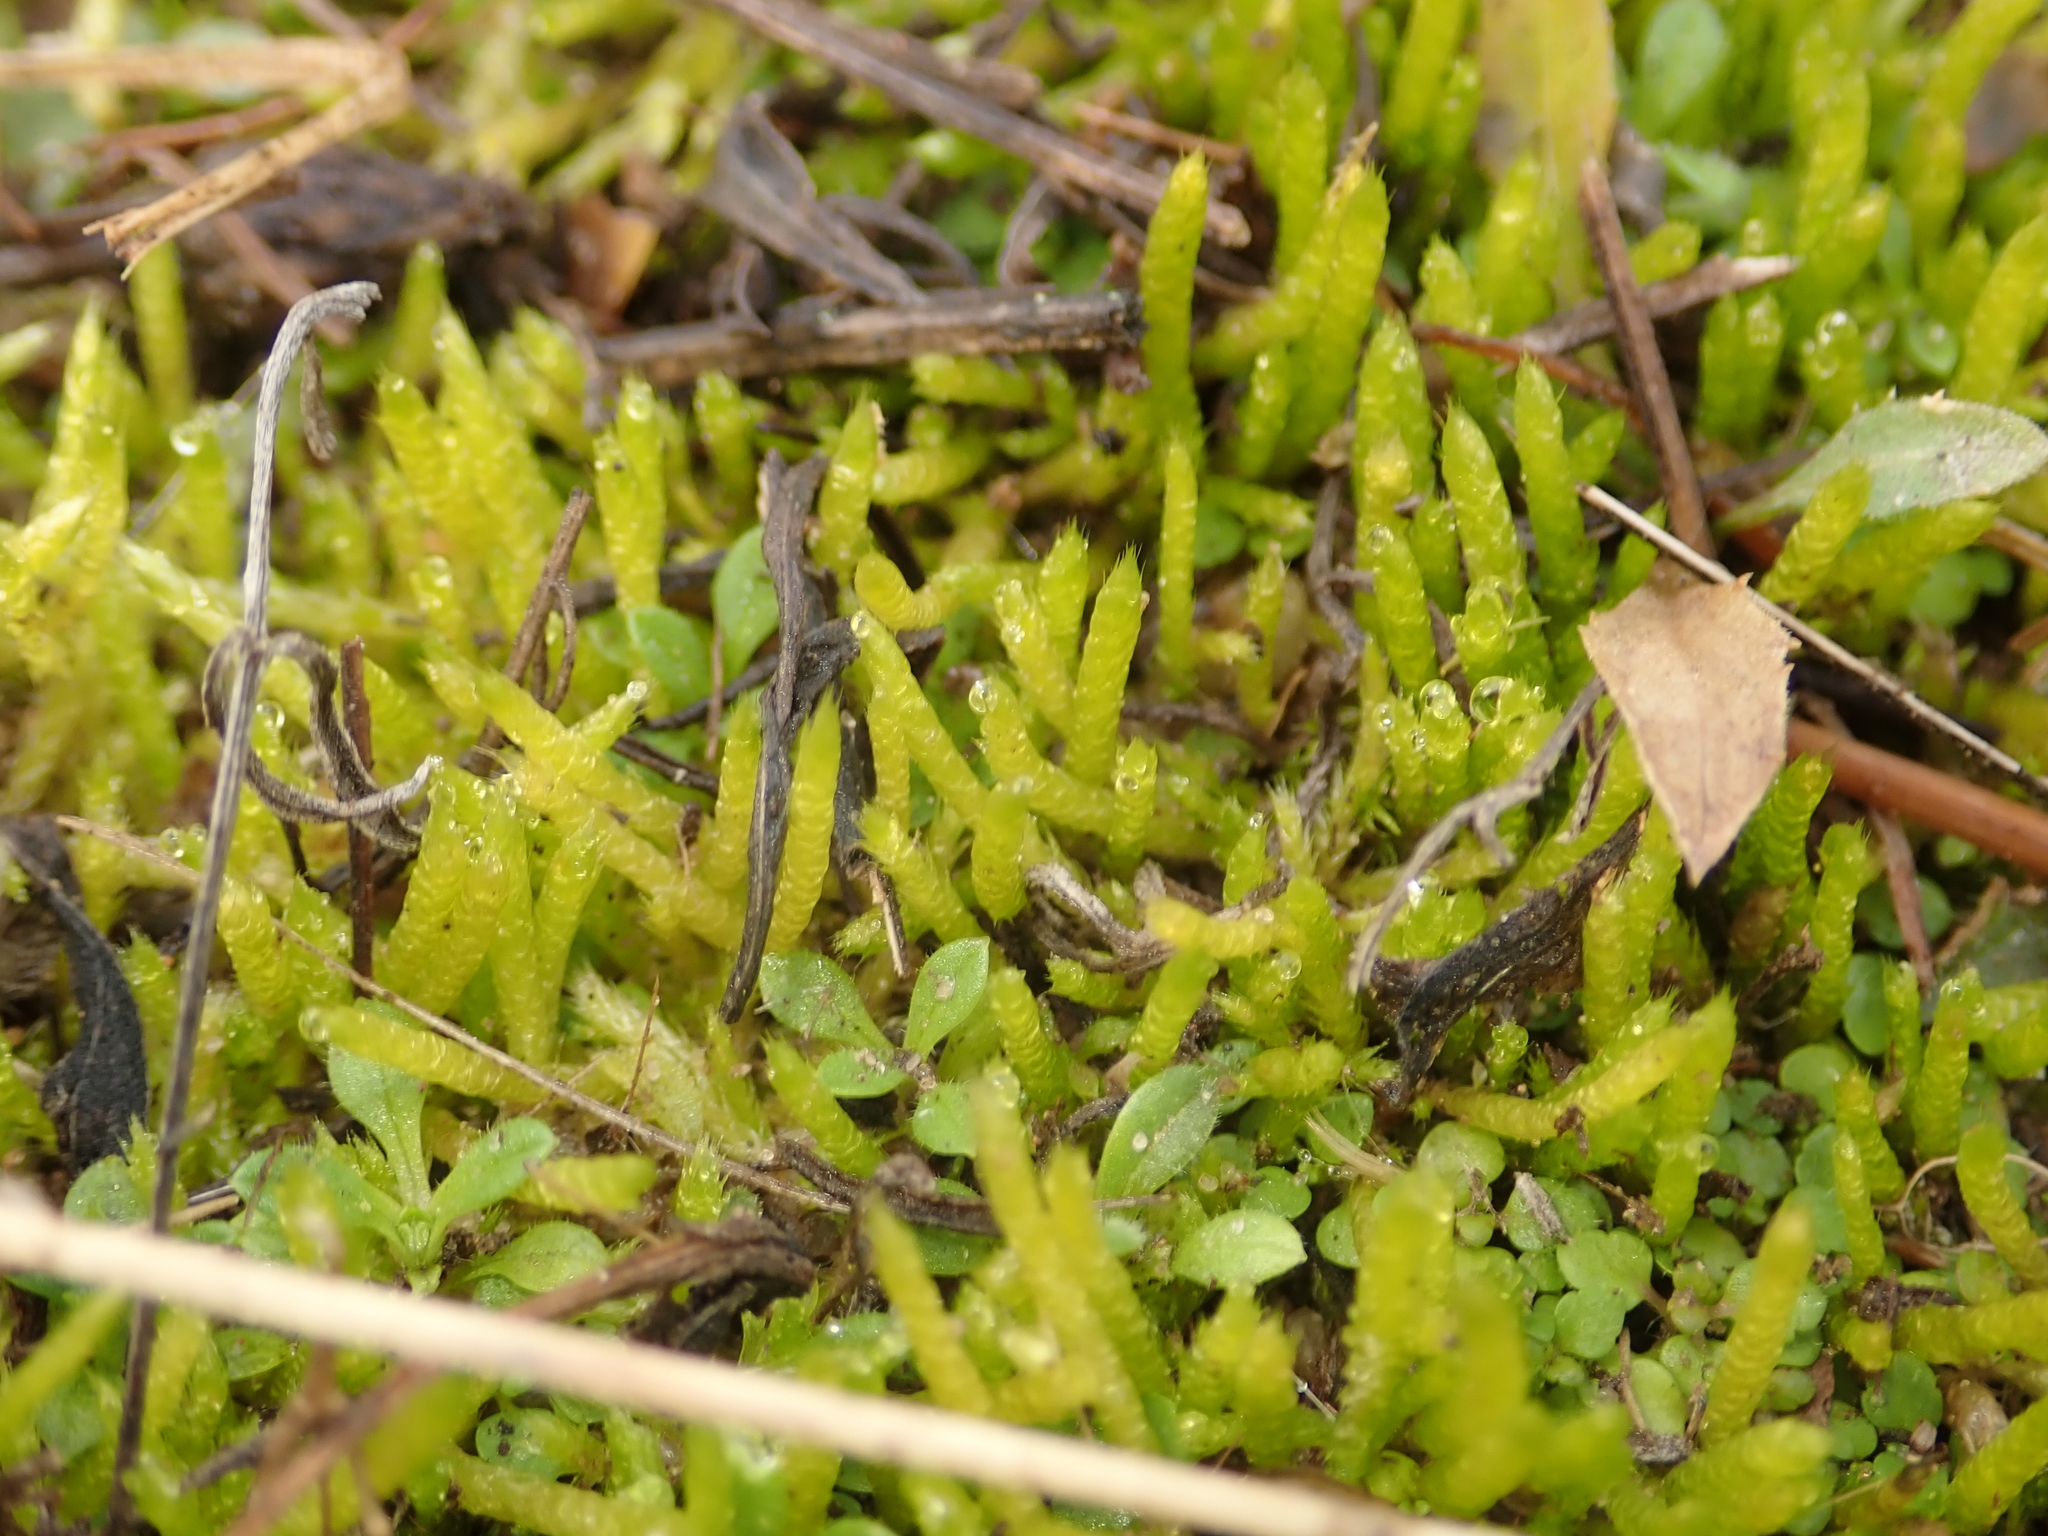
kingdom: Plantae
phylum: Bryophyta
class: Bryopsida
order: Hypnales
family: Brachytheciaceae
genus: Brachythecium
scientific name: Brachythecium albicans
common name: Whitish ragged moss
